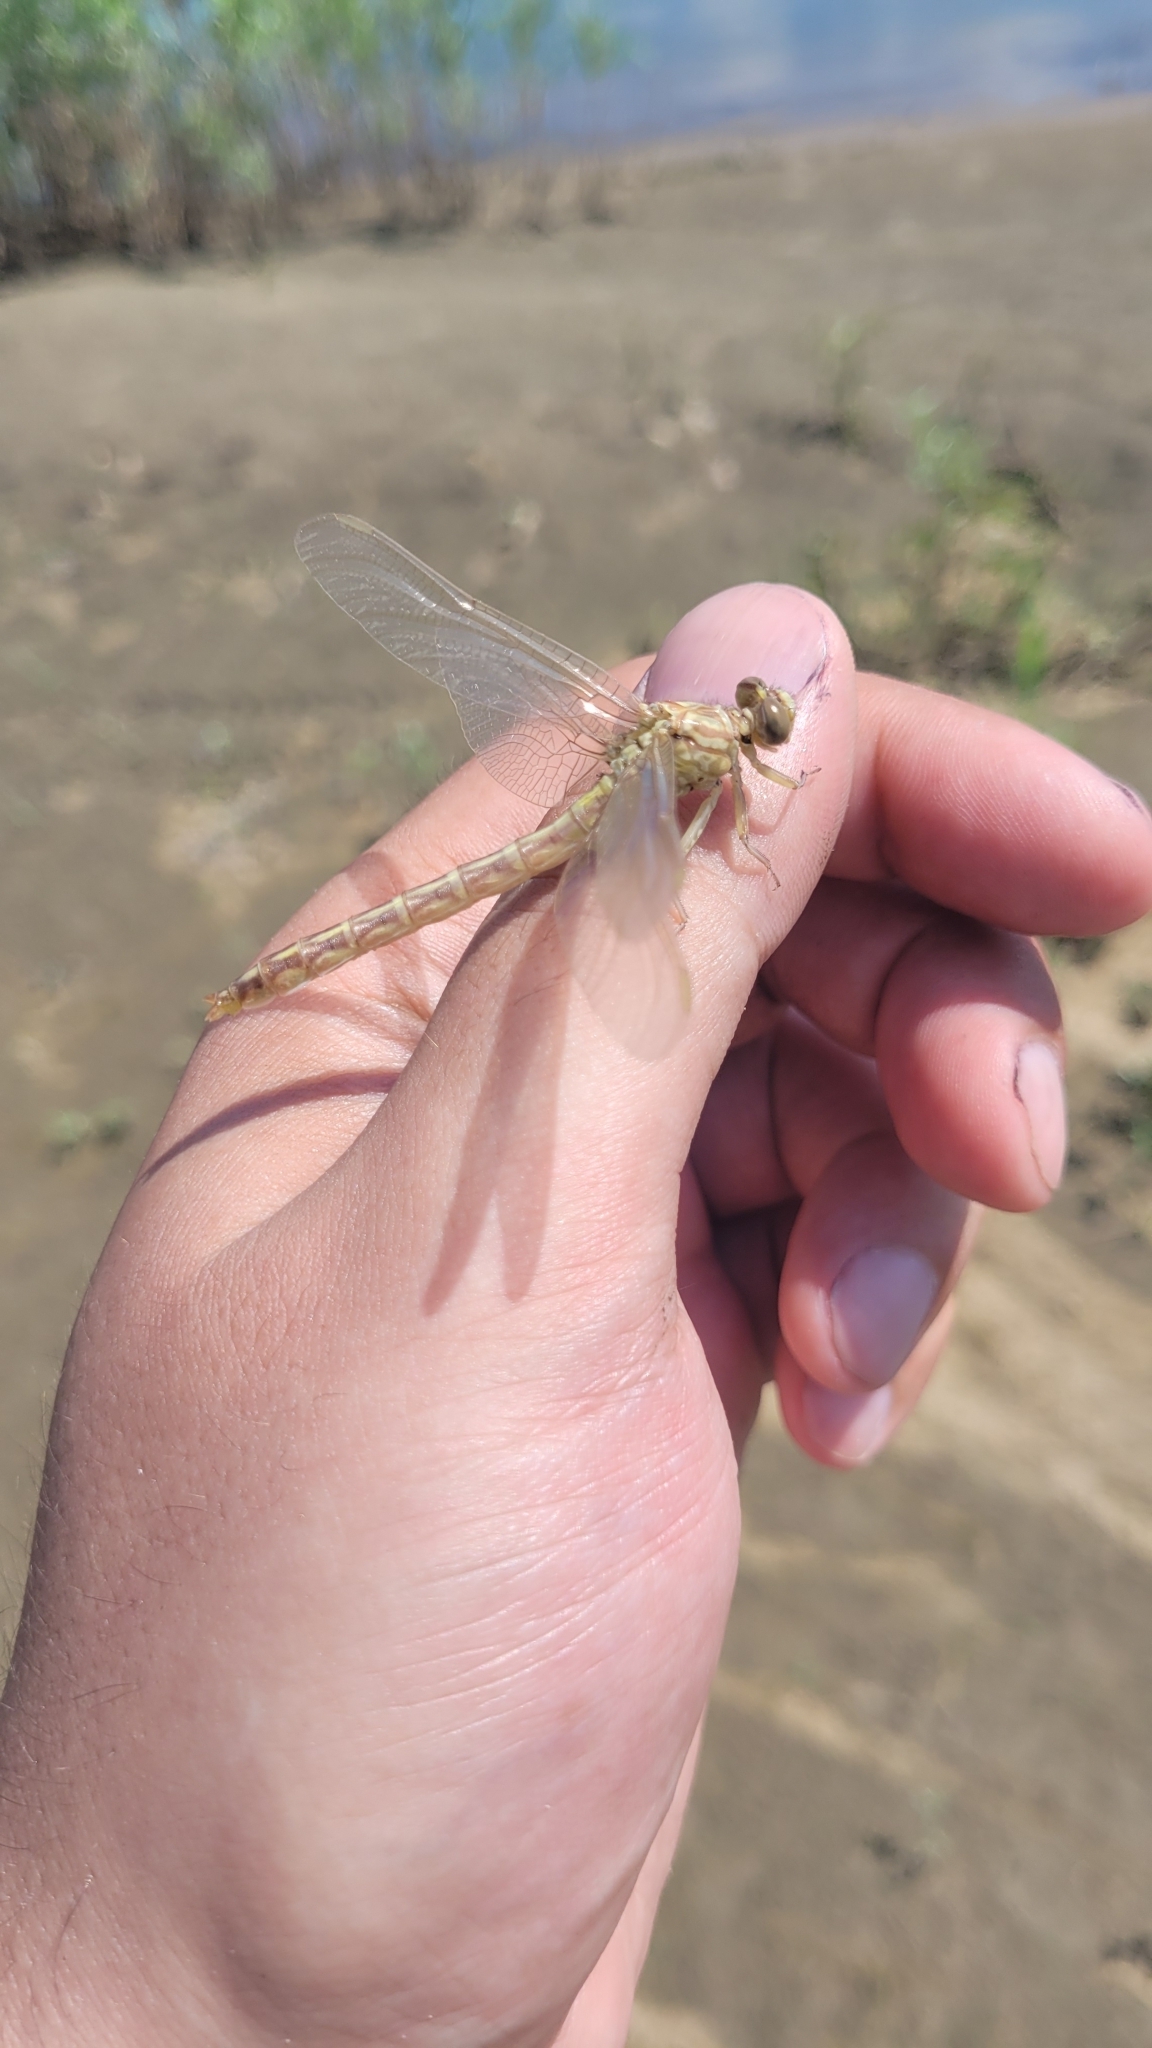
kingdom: Animalia
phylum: Arthropoda
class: Insecta
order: Odonata
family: Gomphidae
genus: Stylurus
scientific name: Stylurus flavipes
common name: River clubtail
